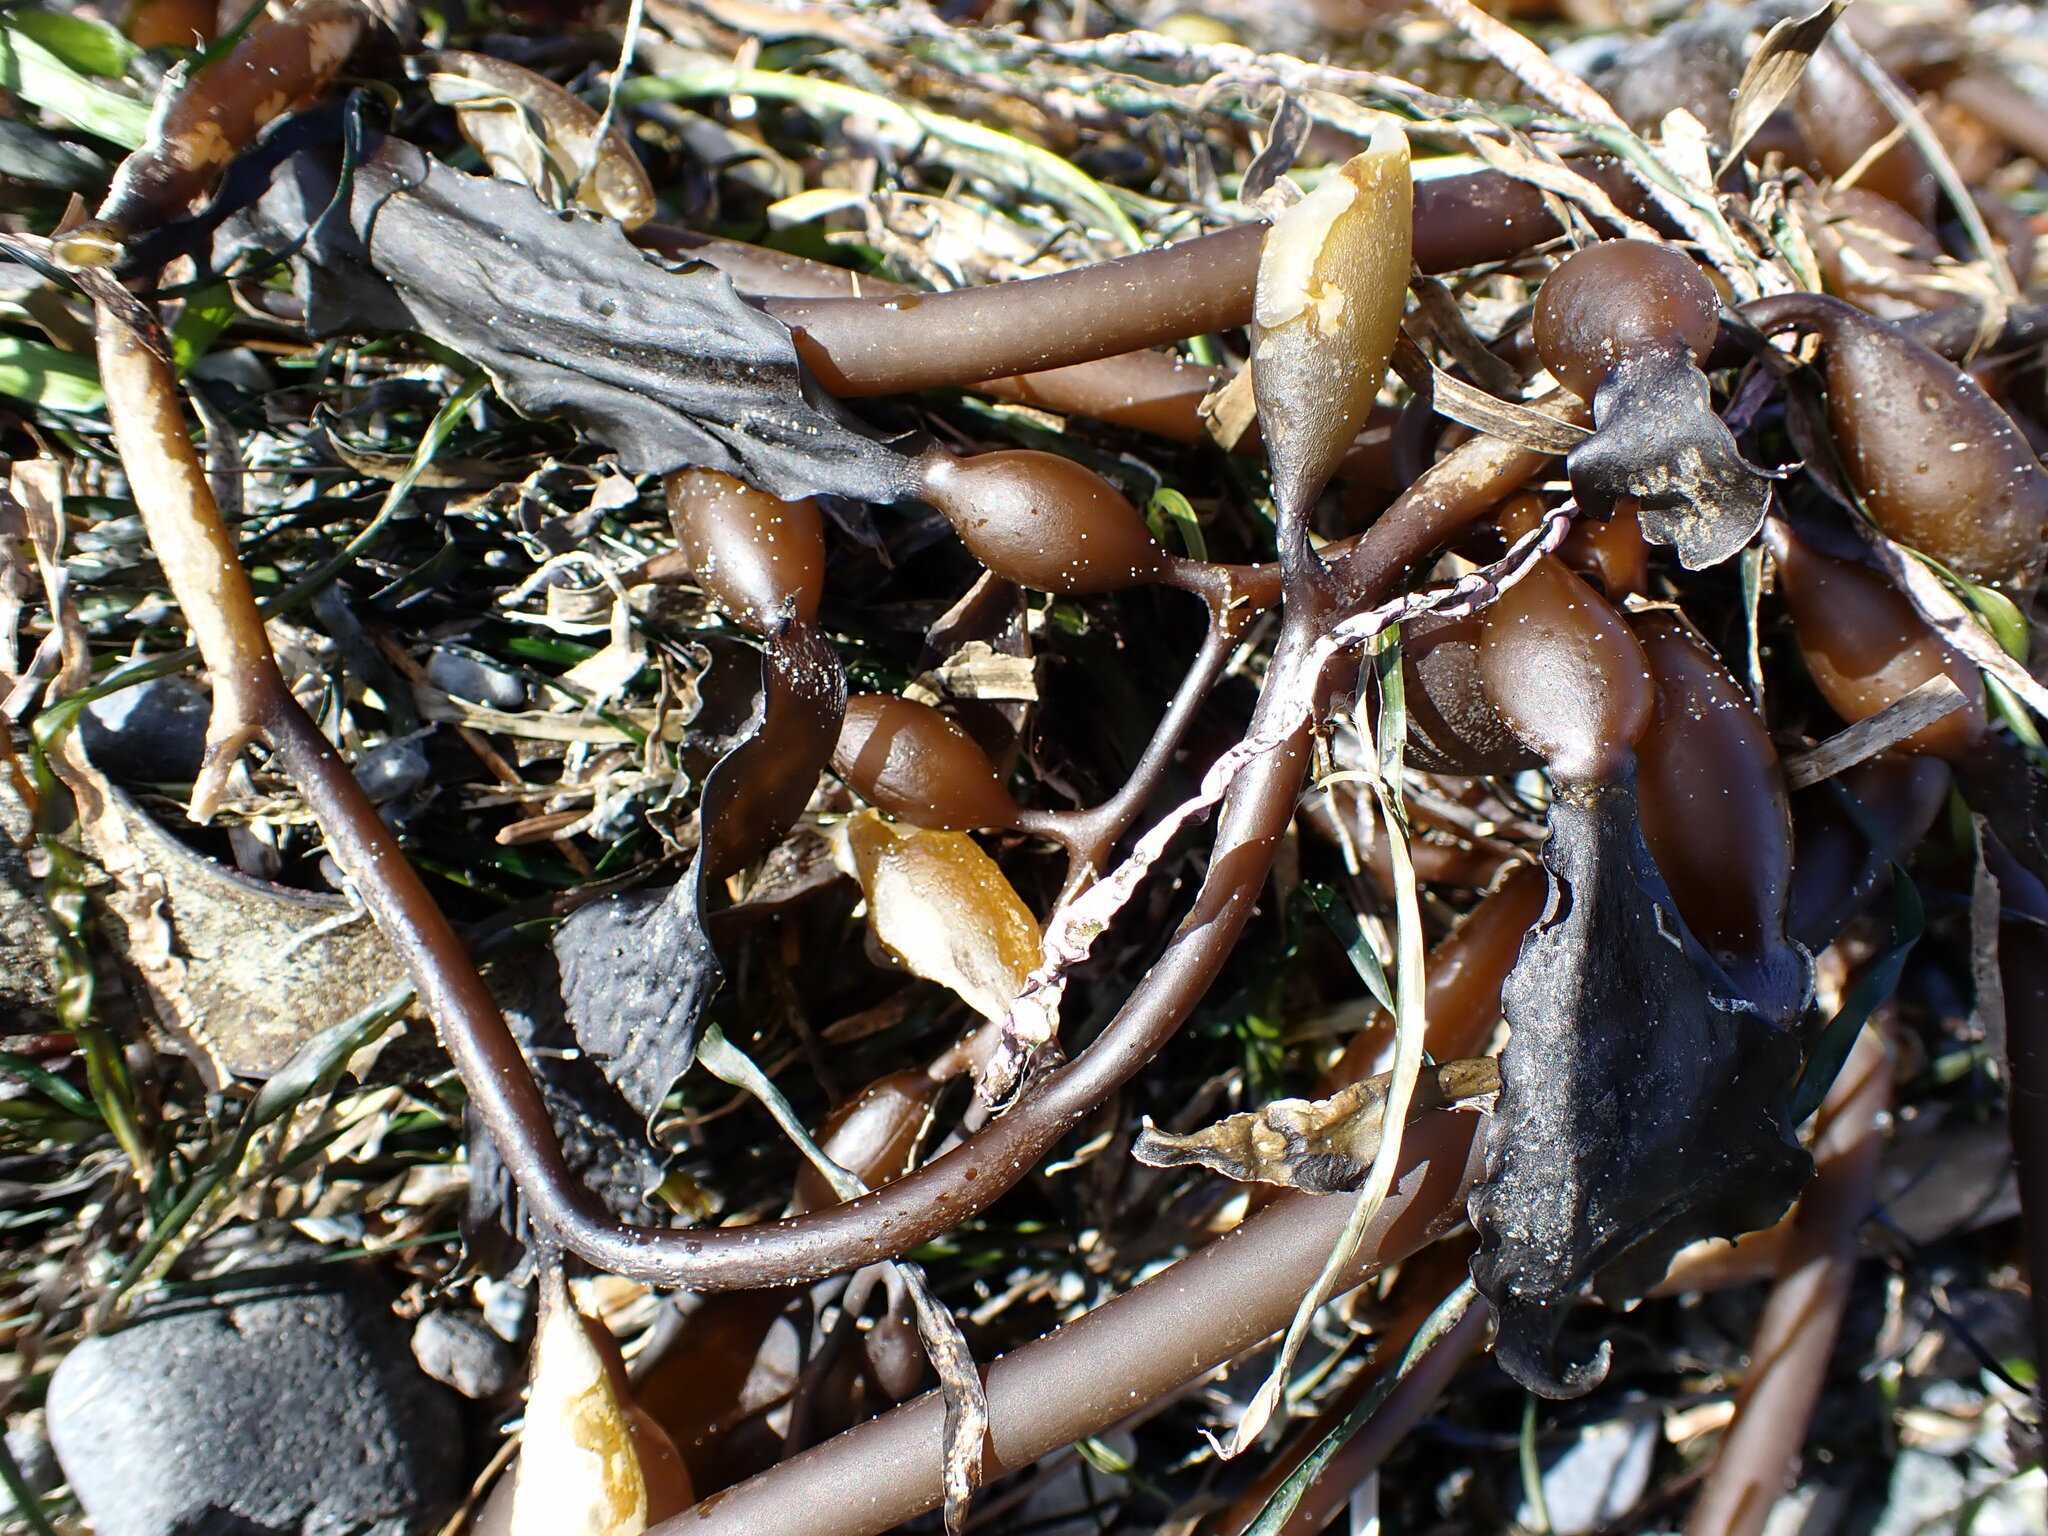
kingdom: Chromista
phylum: Ochrophyta
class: Phaeophyceae
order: Laminariales
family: Laminariaceae
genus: Macrocystis
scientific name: Macrocystis pyrifera
